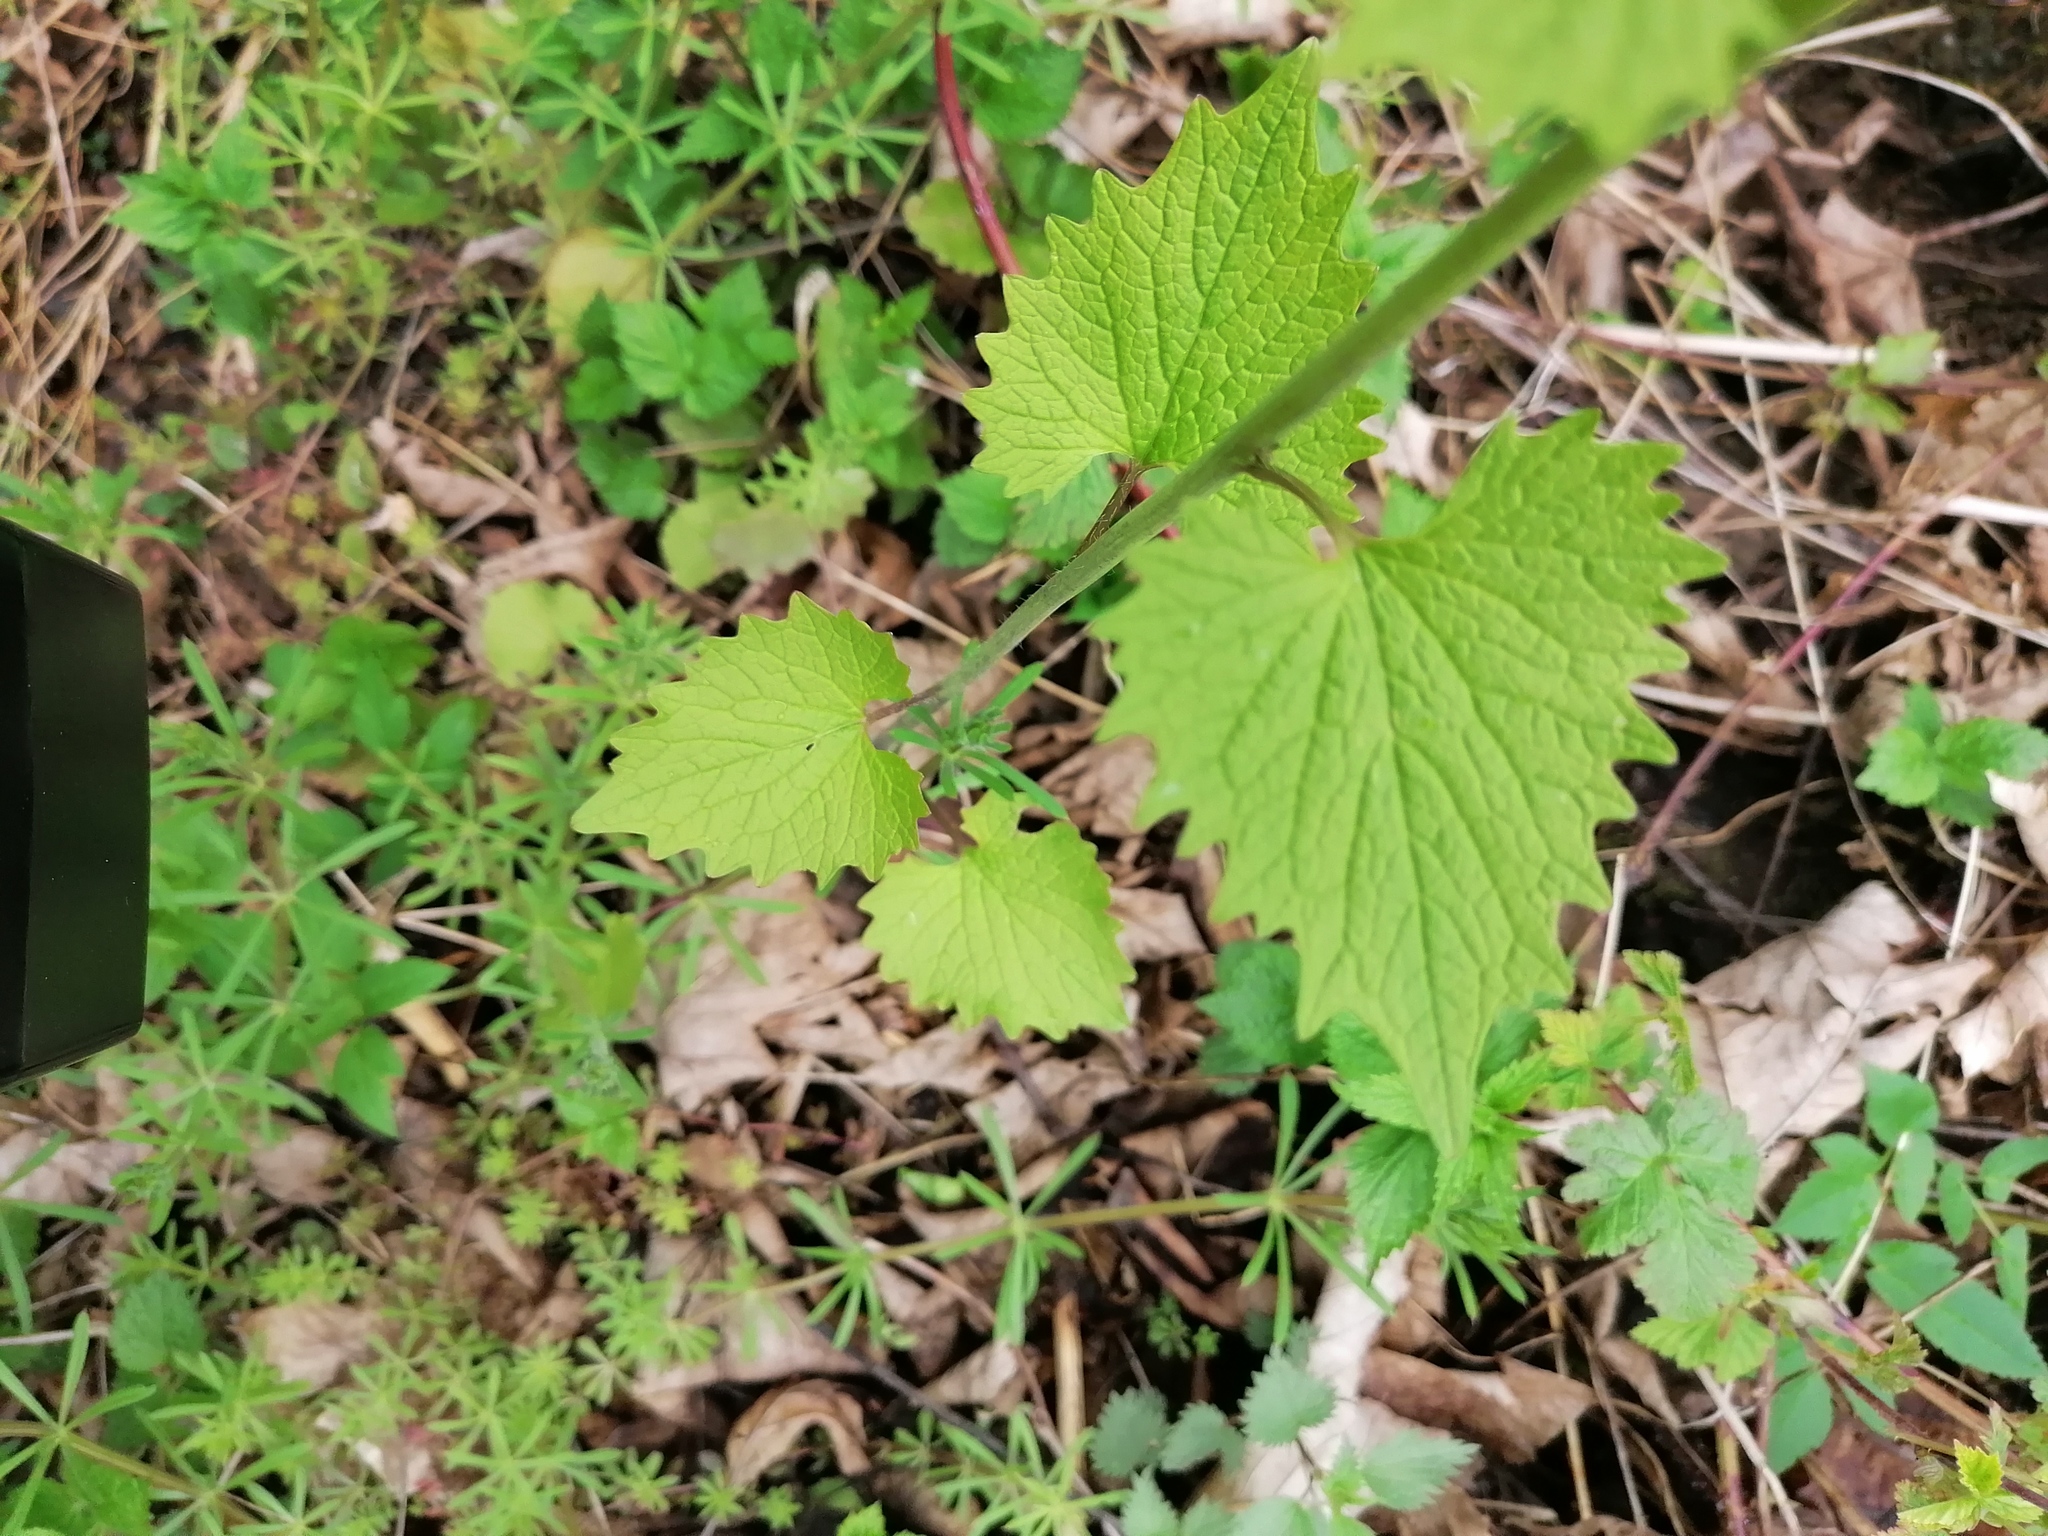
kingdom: Plantae
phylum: Tracheophyta
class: Magnoliopsida
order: Brassicales
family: Brassicaceae
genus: Alliaria
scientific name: Alliaria petiolata
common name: Garlic mustard
